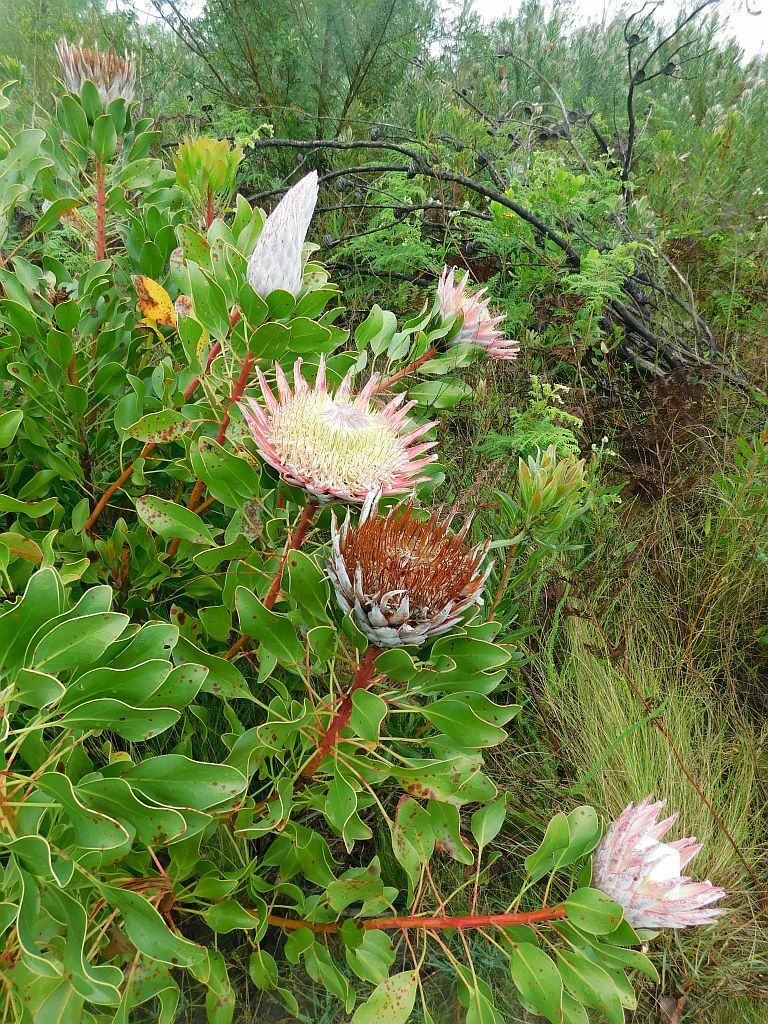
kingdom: Plantae
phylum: Tracheophyta
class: Magnoliopsida
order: Proteales
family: Proteaceae
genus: Protea
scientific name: Protea cynaroides
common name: King protea
